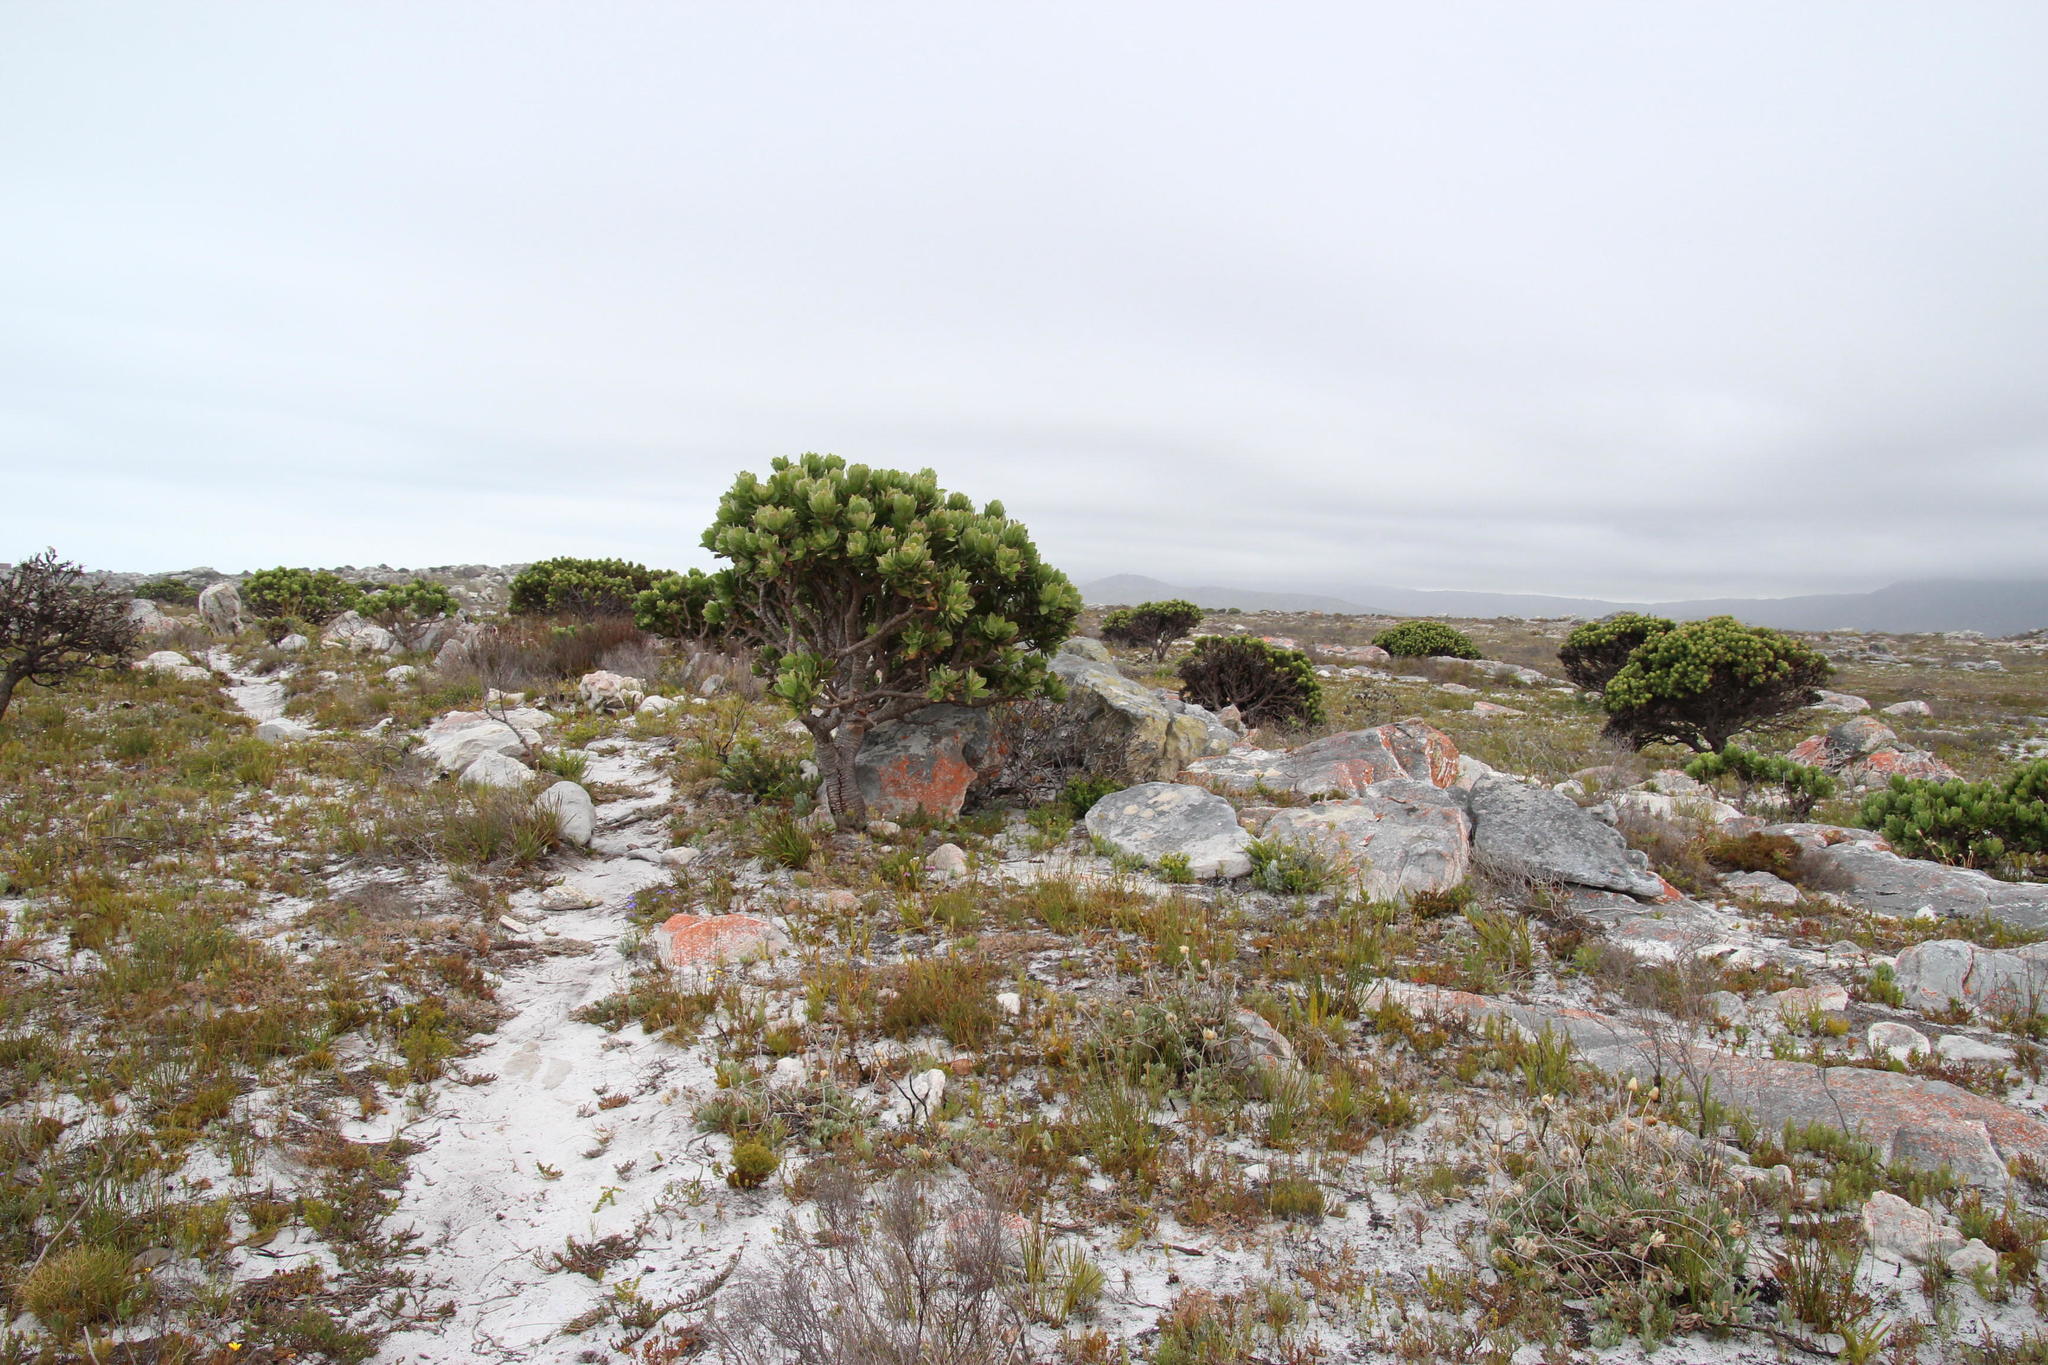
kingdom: Plantae
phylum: Tracheophyta
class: Magnoliopsida
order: Proteales
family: Proteaceae
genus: Leucospermum
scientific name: Leucospermum conocarpodendron
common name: Tree pincushion
